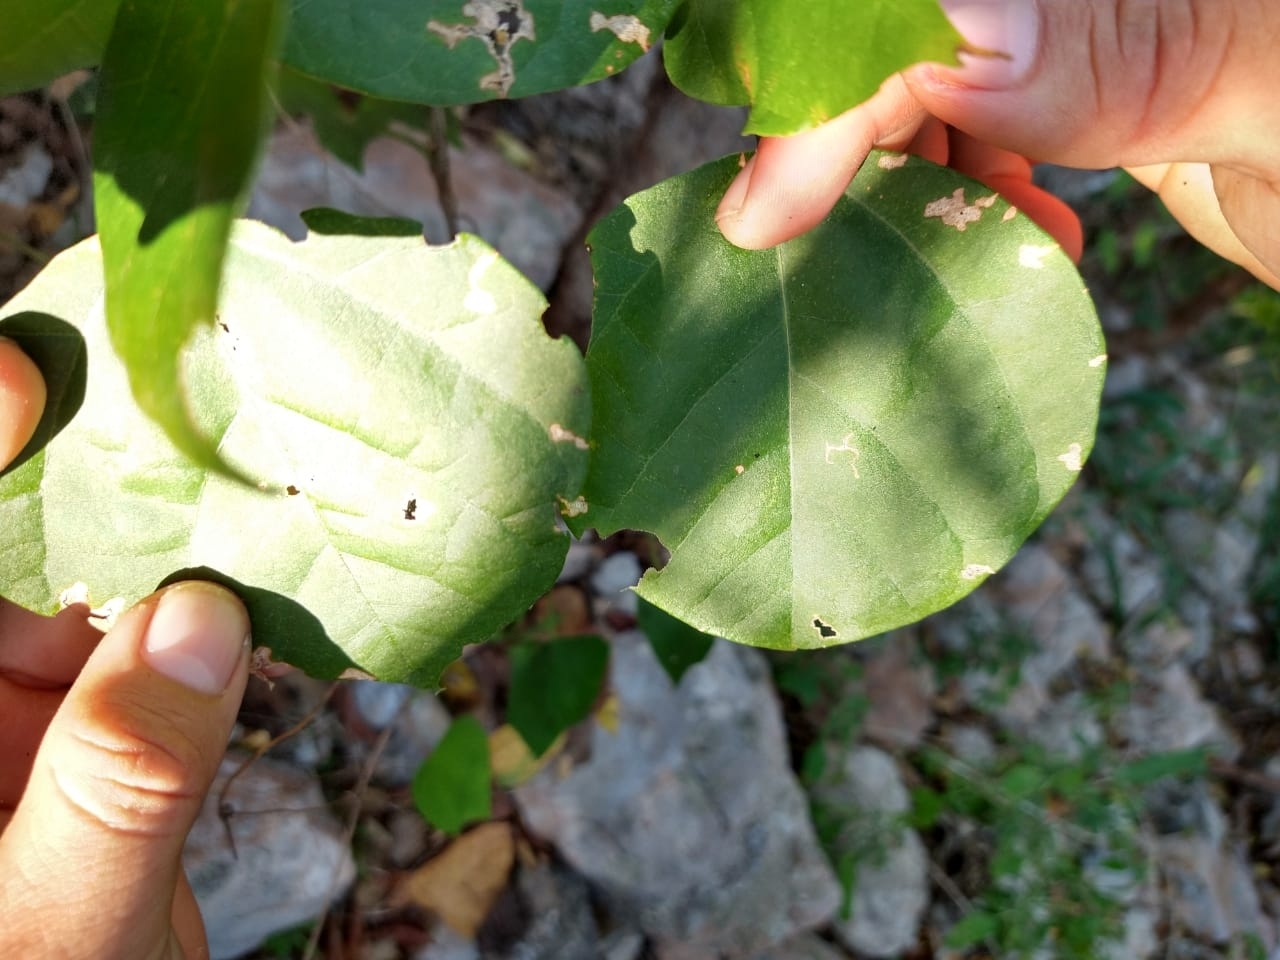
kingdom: Plantae
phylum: Tracheophyta
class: Magnoliopsida
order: Caryophyllales
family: Nyctaginaceae
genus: Pisonia
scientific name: Pisonia aculeata
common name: Cockspur vine
